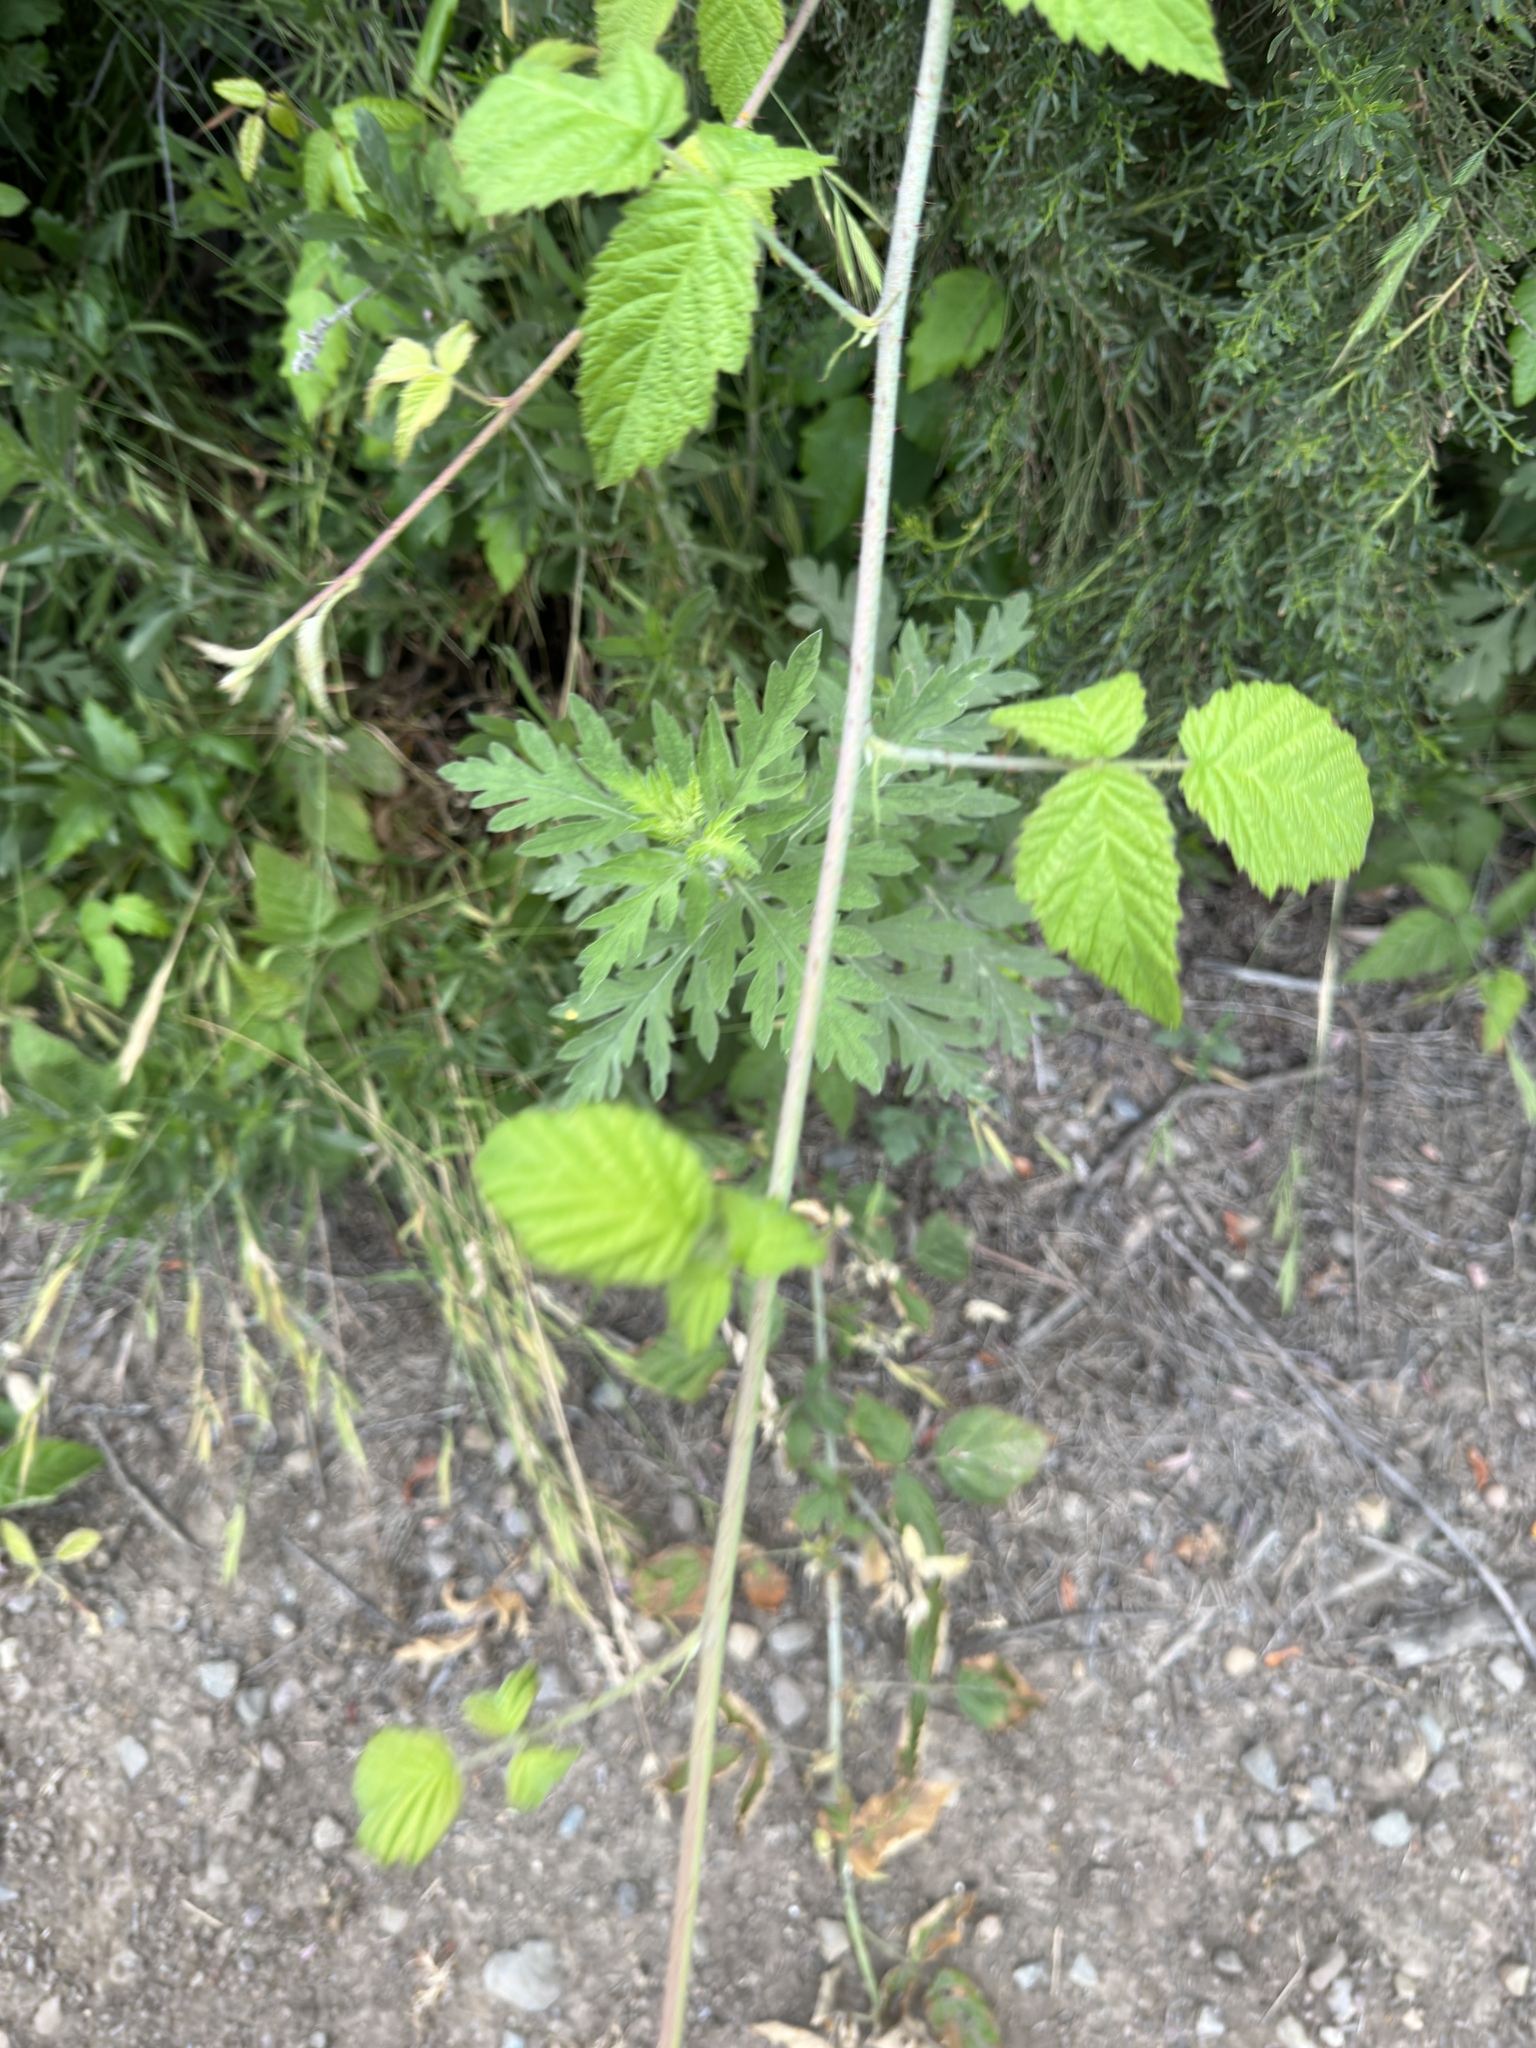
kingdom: Plantae
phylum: Tracheophyta
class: Magnoliopsida
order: Rosales
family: Rosaceae
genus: Rubus
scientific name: Rubus ursinus
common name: Pacific blackberry
